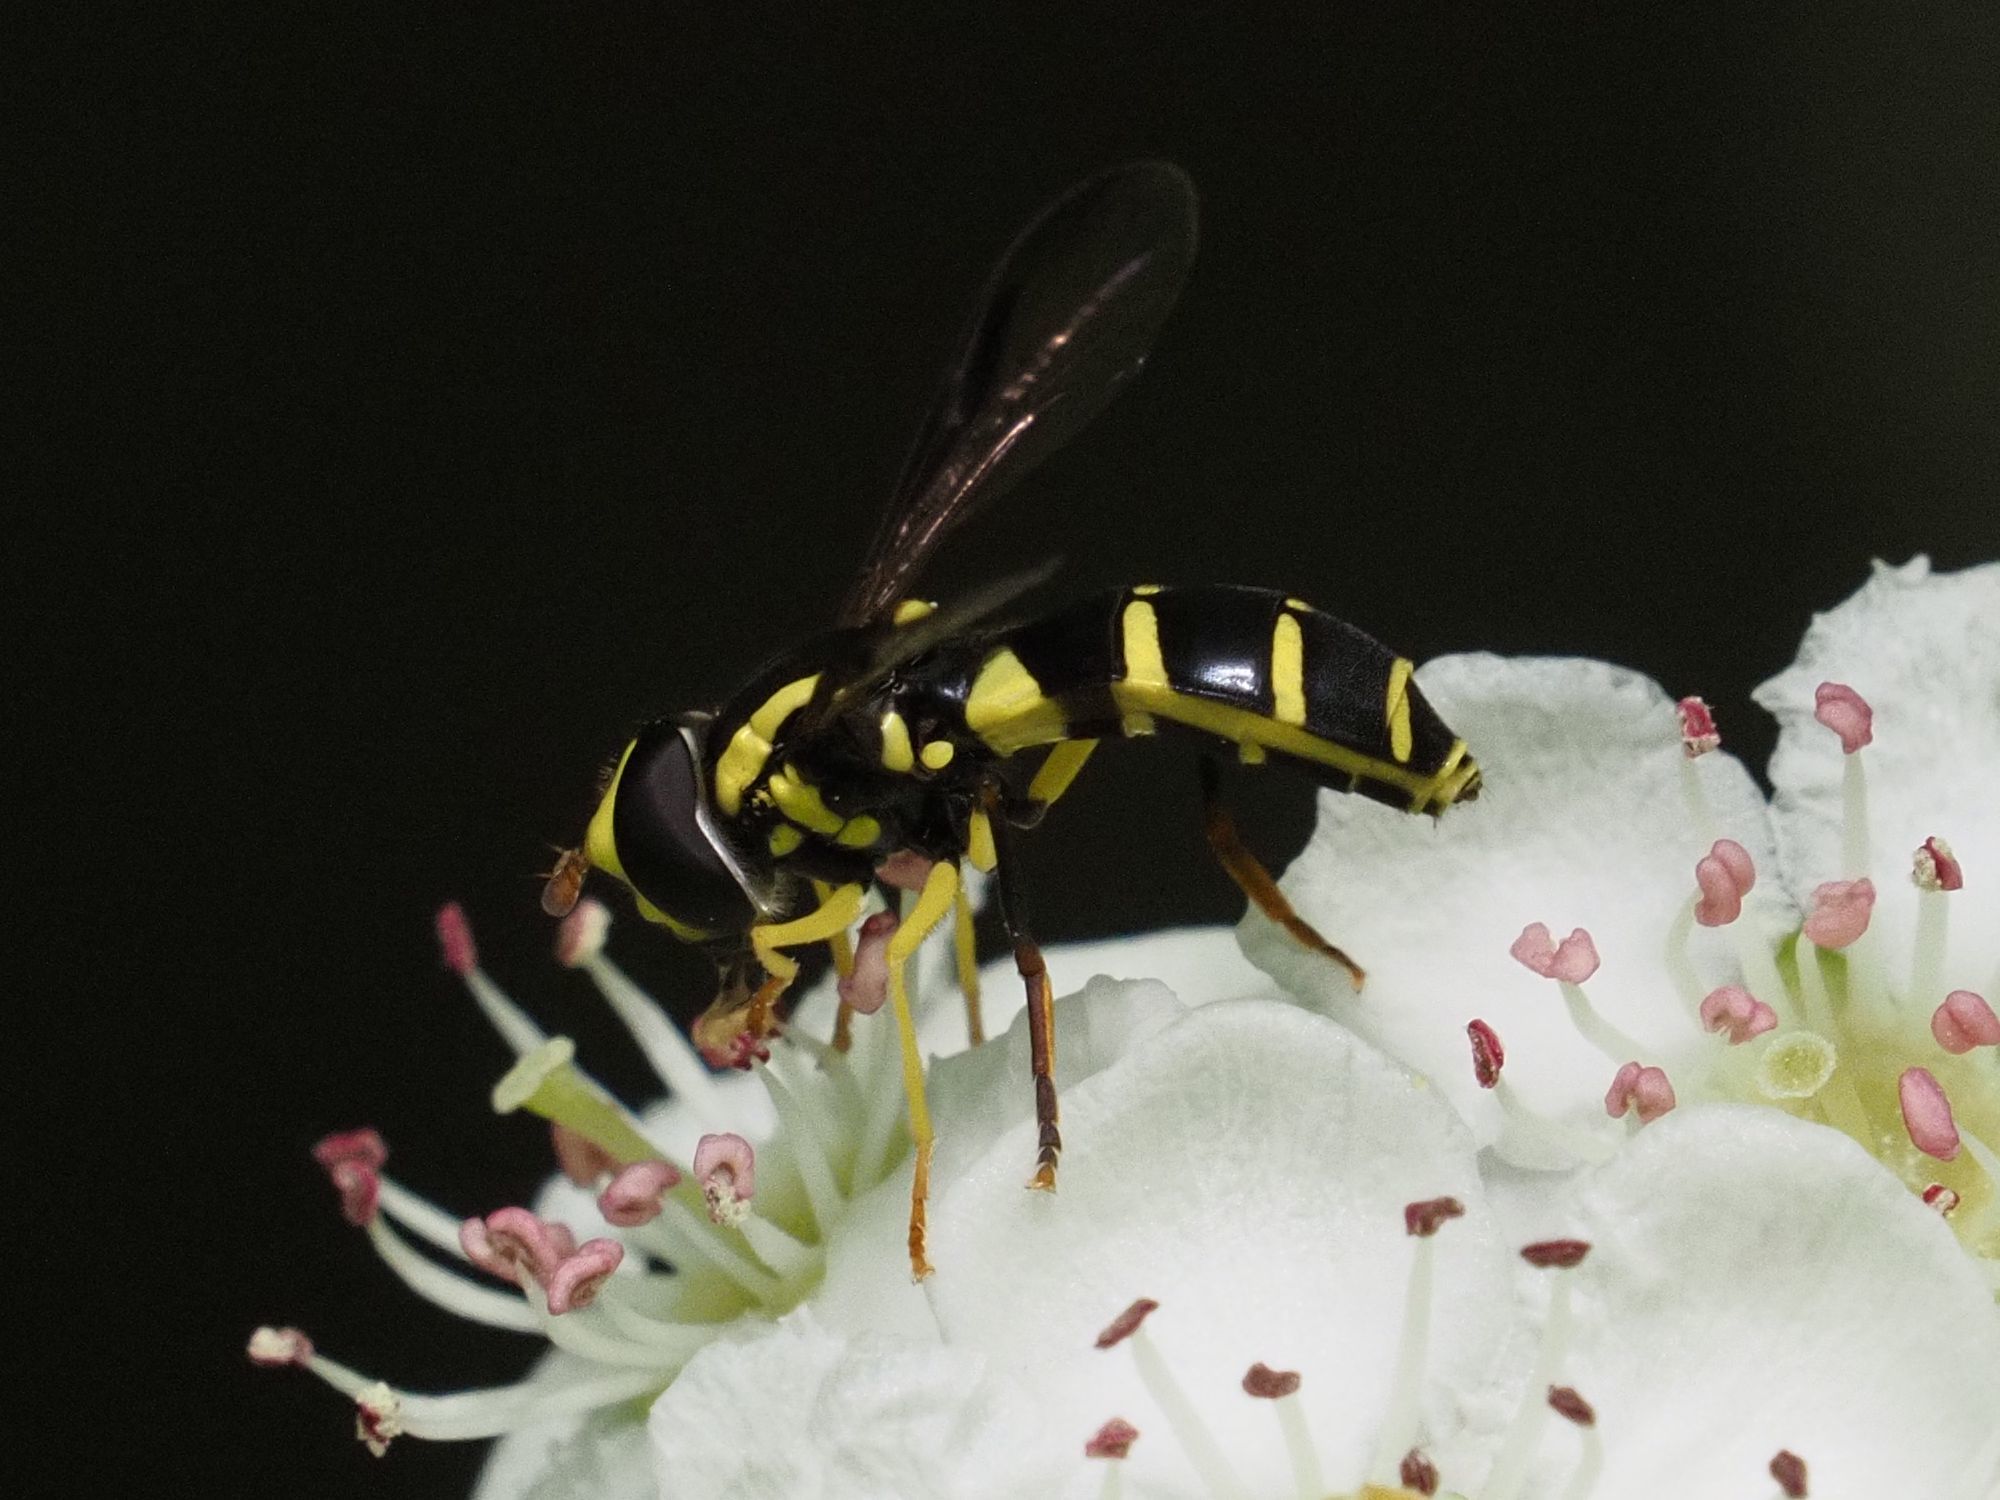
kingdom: Animalia
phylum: Arthropoda
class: Insecta
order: Diptera
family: Syrphidae
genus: Philhelius
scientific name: Philhelius dives
